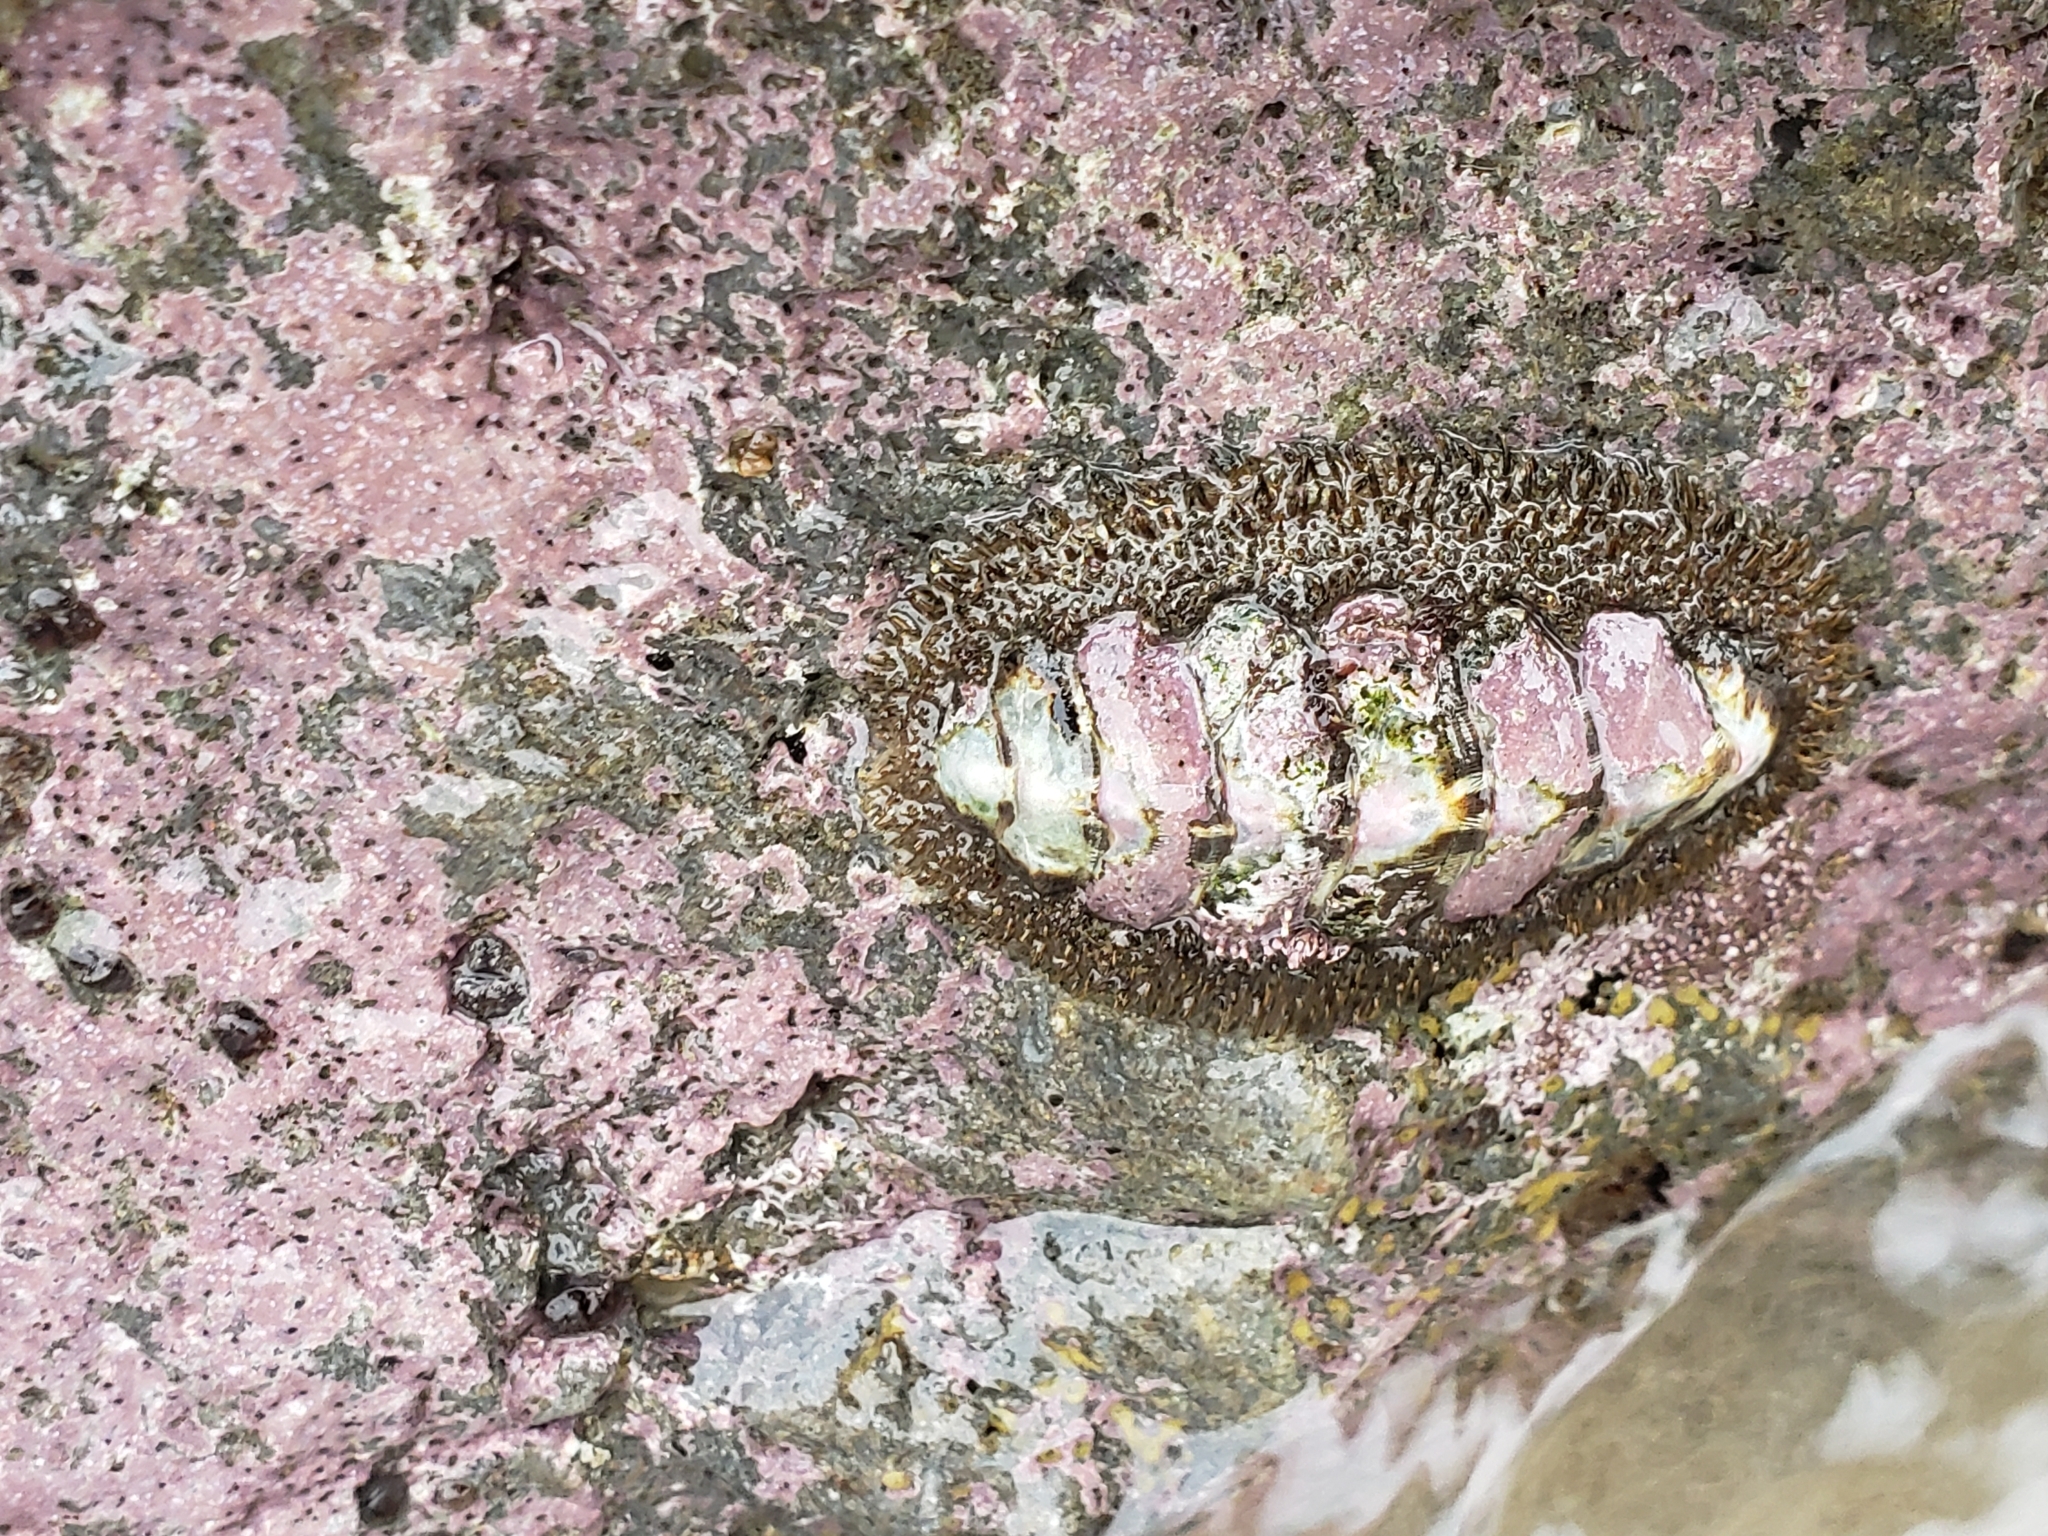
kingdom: Animalia
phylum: Mollusca
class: Polyplacophora
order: Chitonida
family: Mopaliidae
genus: Mopalia
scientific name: Mopalia muscosa
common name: Mossy chiton
